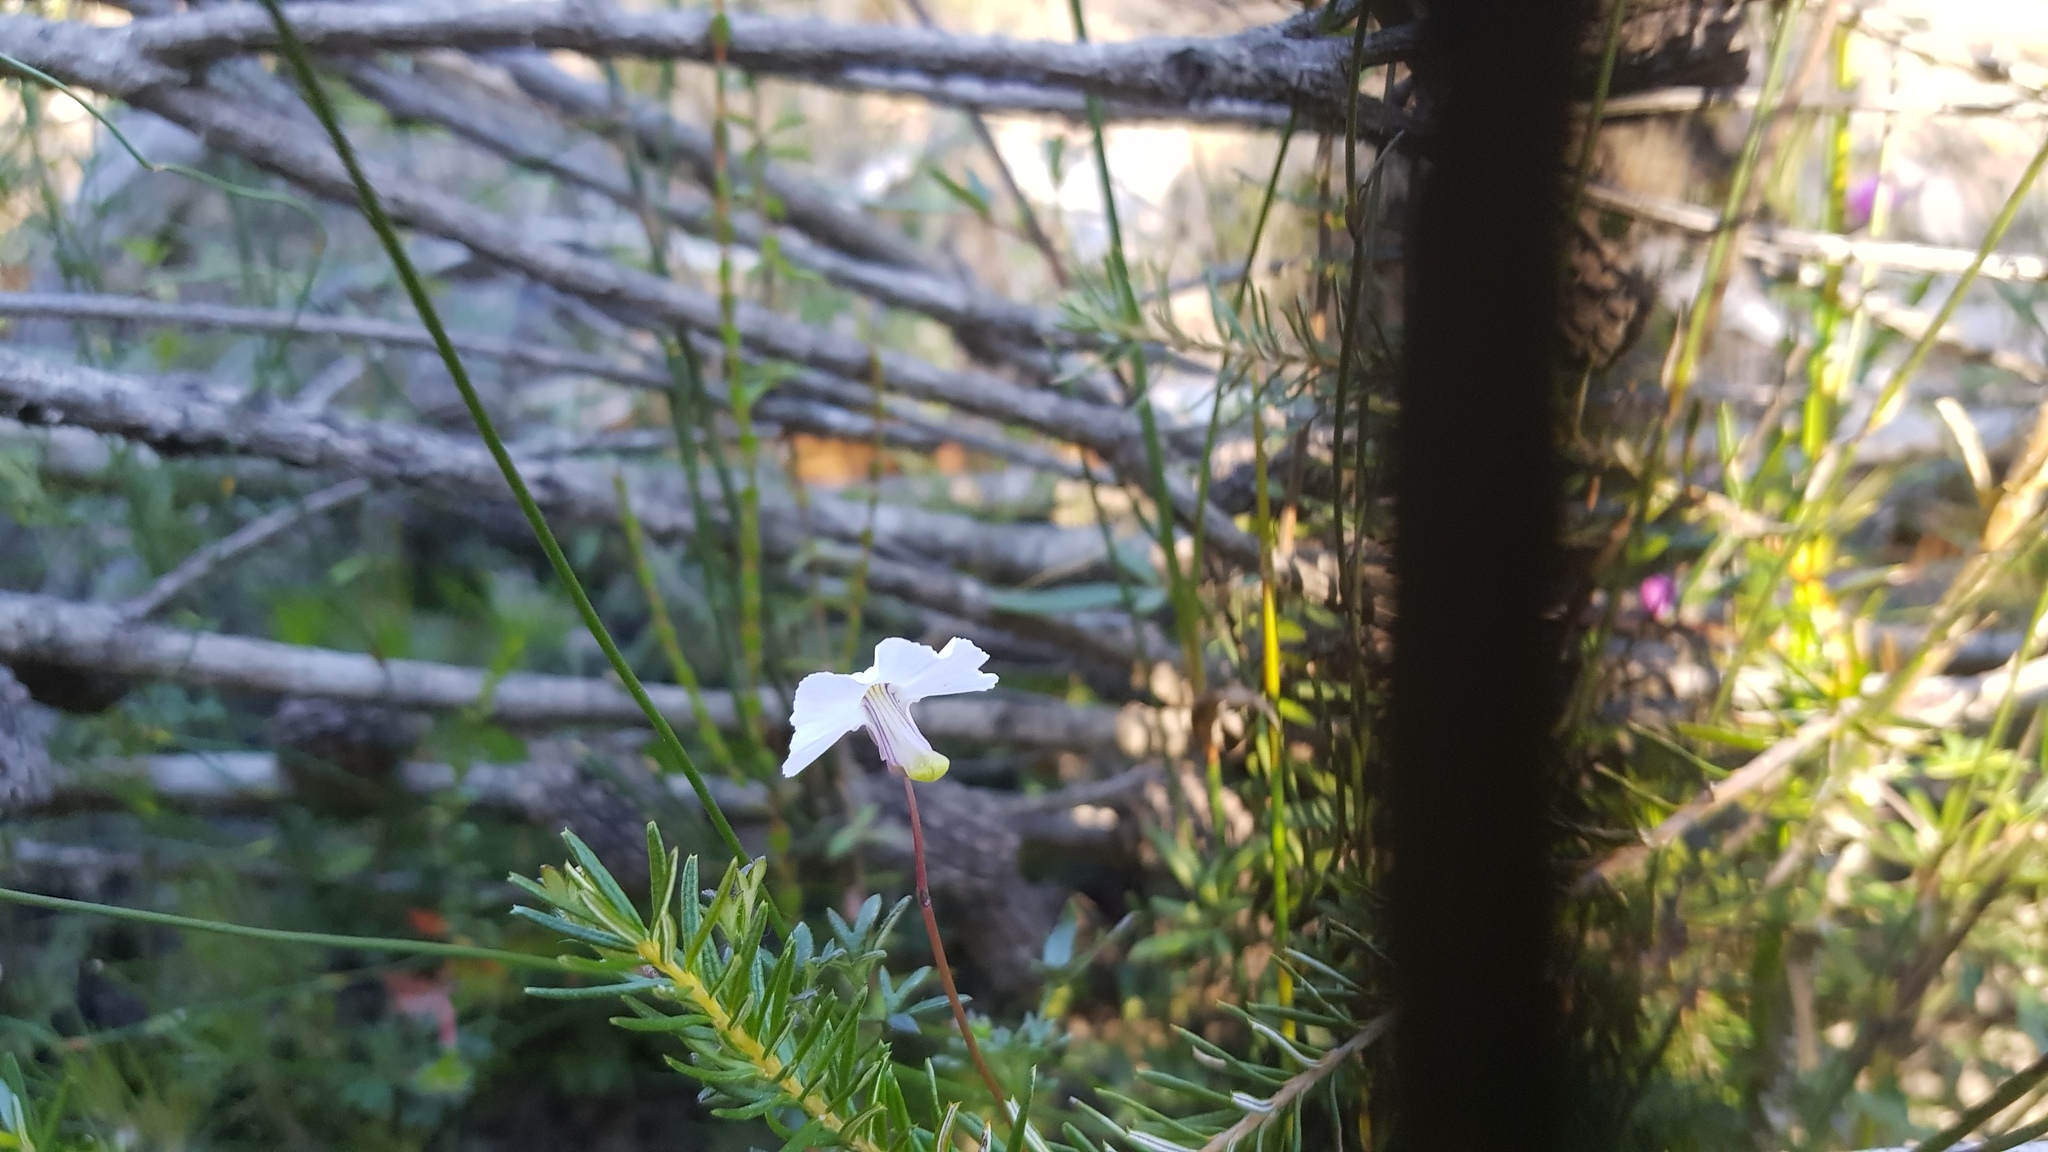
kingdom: Plantae
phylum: Tracheophyta
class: Magnoliopsida
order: Lamiales
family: Lentibulariaceae
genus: Utricularia
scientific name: Utricularia uniflora
